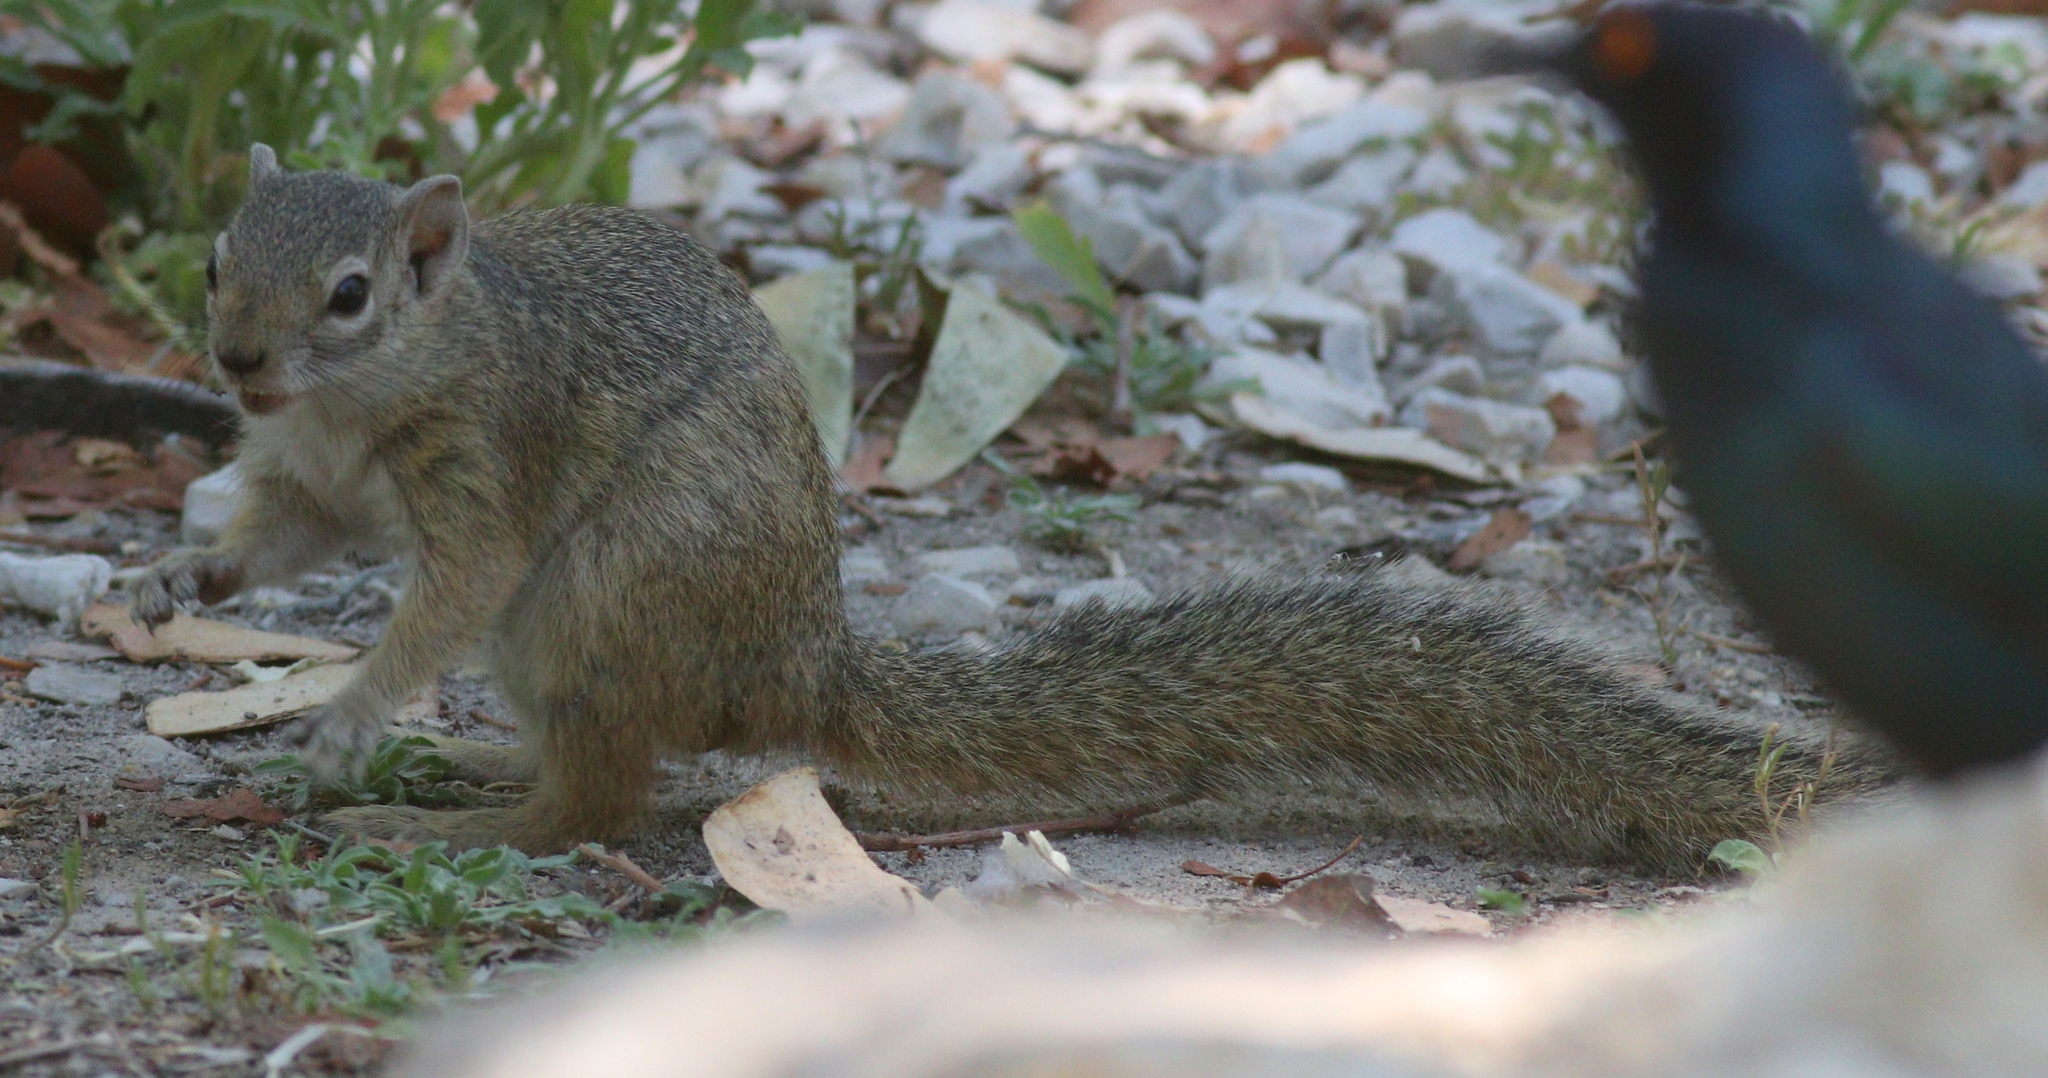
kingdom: Animalia
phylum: Chordata
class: Mammalia
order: Rodentia
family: Sciuridae
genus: Paraxerus
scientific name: Paraxerus cepapi
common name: Smith's bush squirrel
